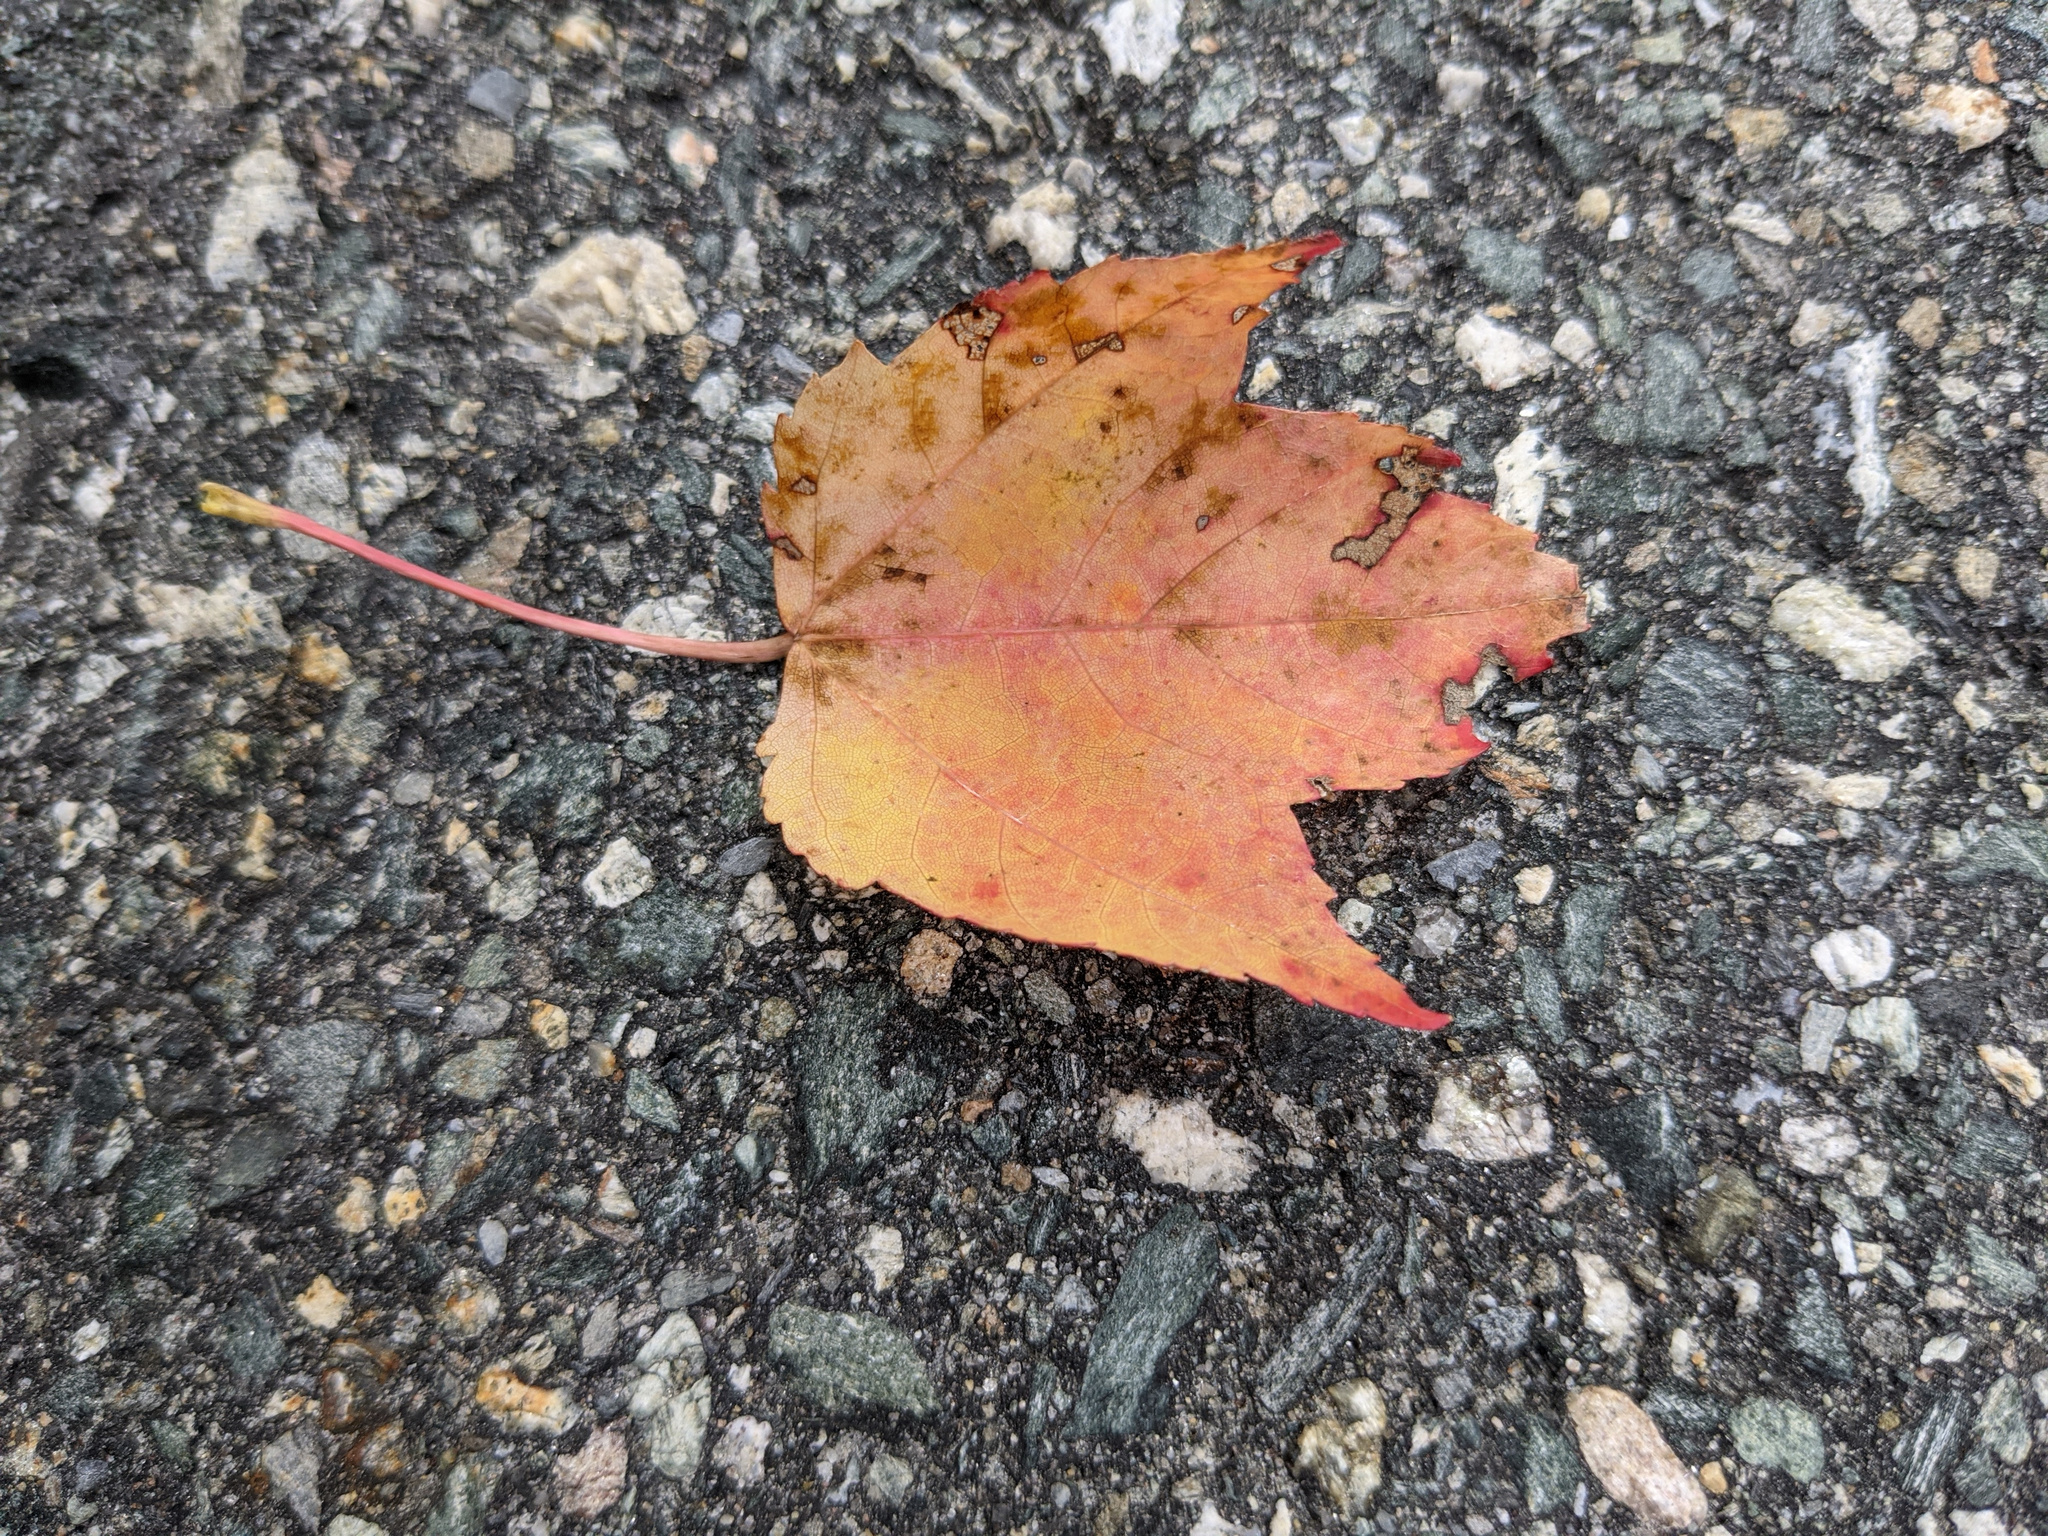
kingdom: Plantae
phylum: Tracheophyta
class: Magnoliopsida
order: Sapindales
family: Sapindaceae
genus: Acer
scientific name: Acer rubrum
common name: Red maple
